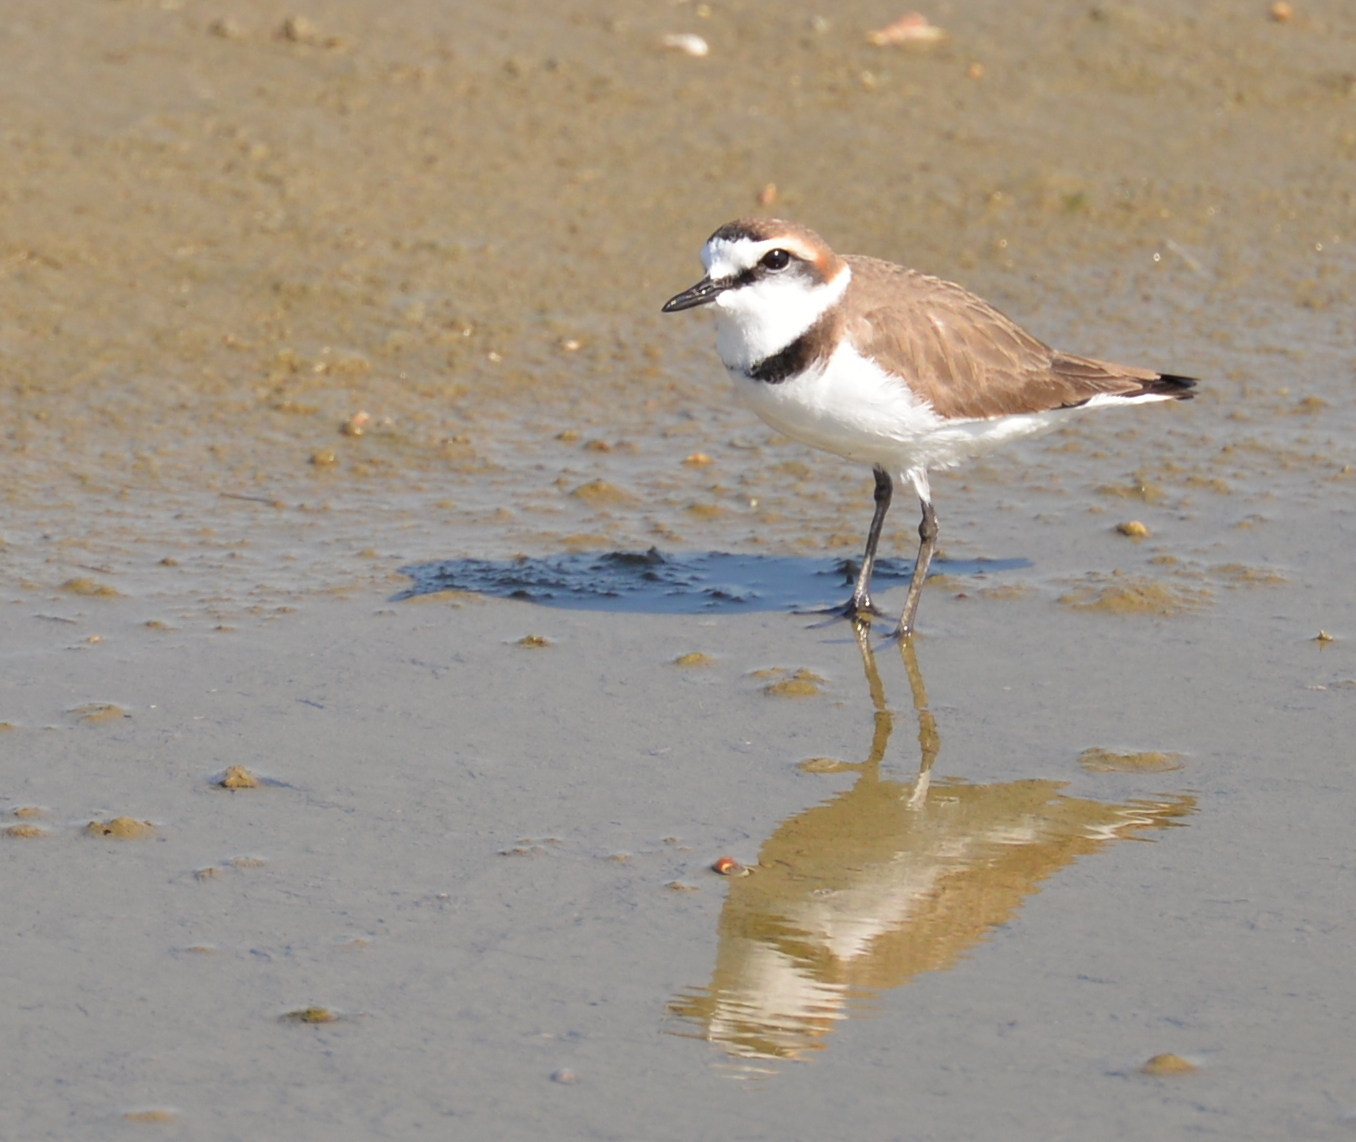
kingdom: Animalia
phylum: Chordata
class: Aves
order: Charadriiformes
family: Charadriidae
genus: Charadrius
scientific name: Charadrius alexandrinus
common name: Kentish plover
